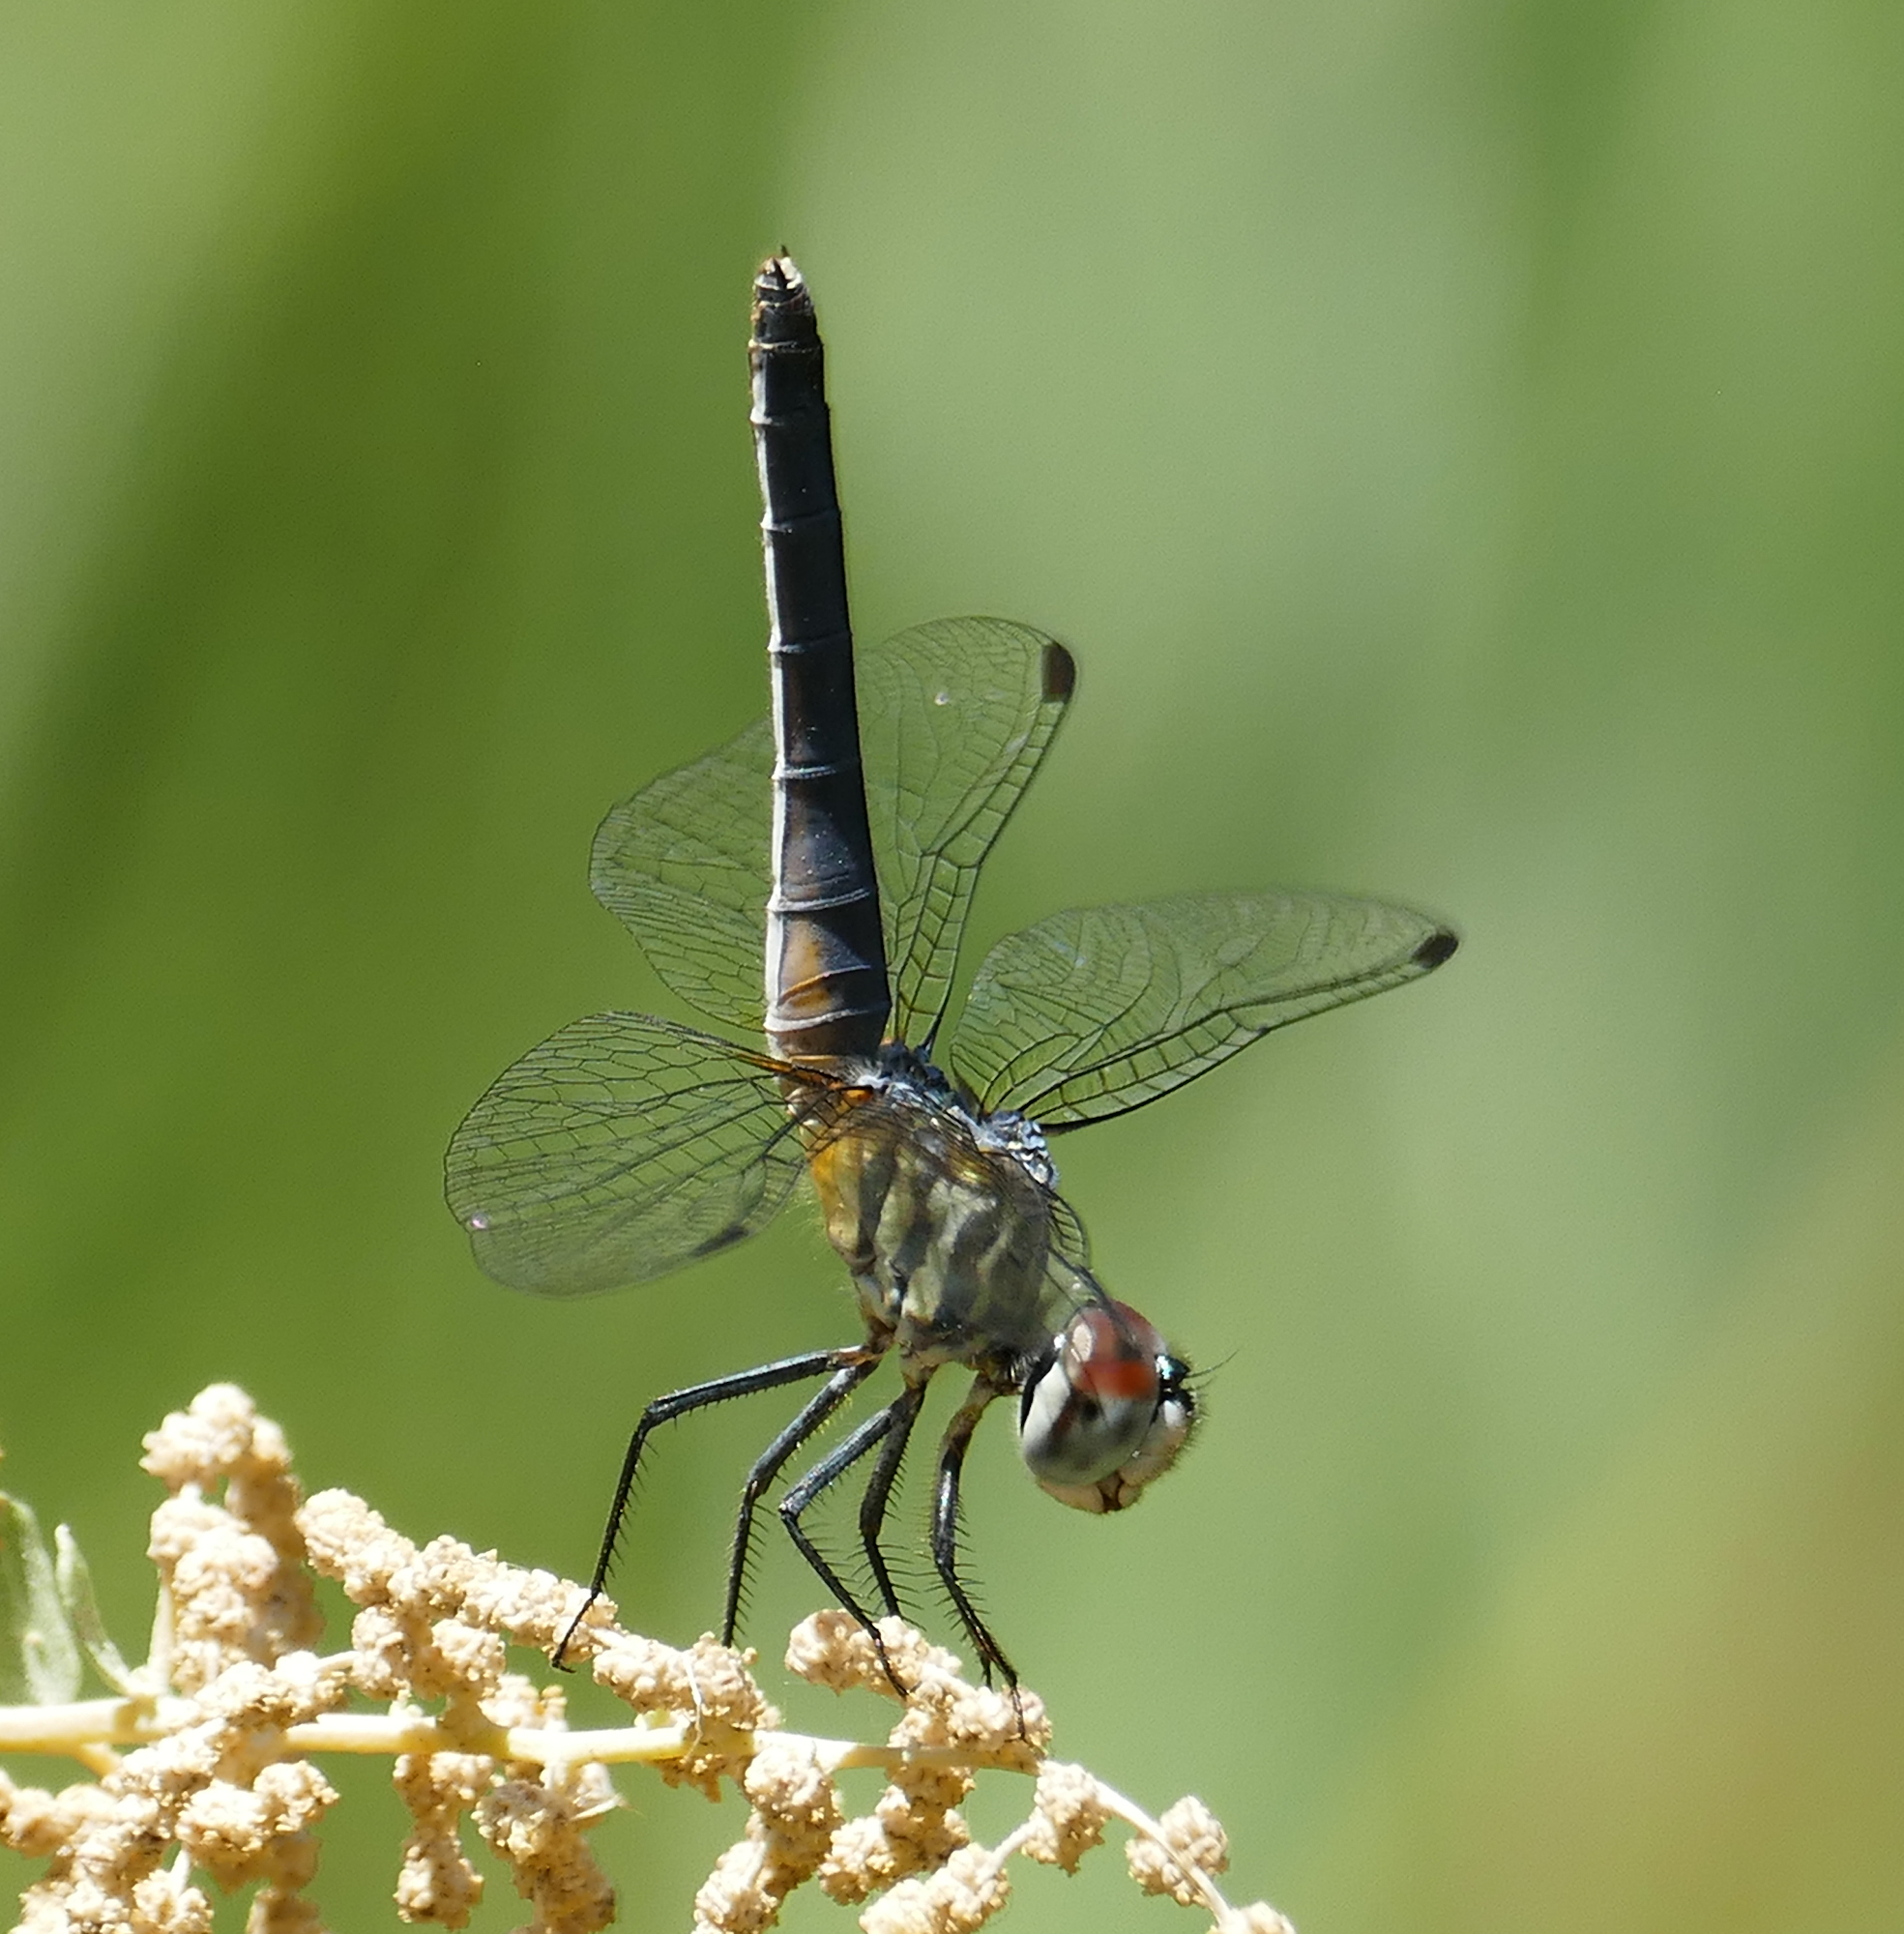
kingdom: Animalia
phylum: Arthropoda
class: Insecta
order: Odonata
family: Libellulidae
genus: Pachydiplax
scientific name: Pachydiplax longipennis
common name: Blue dasher
